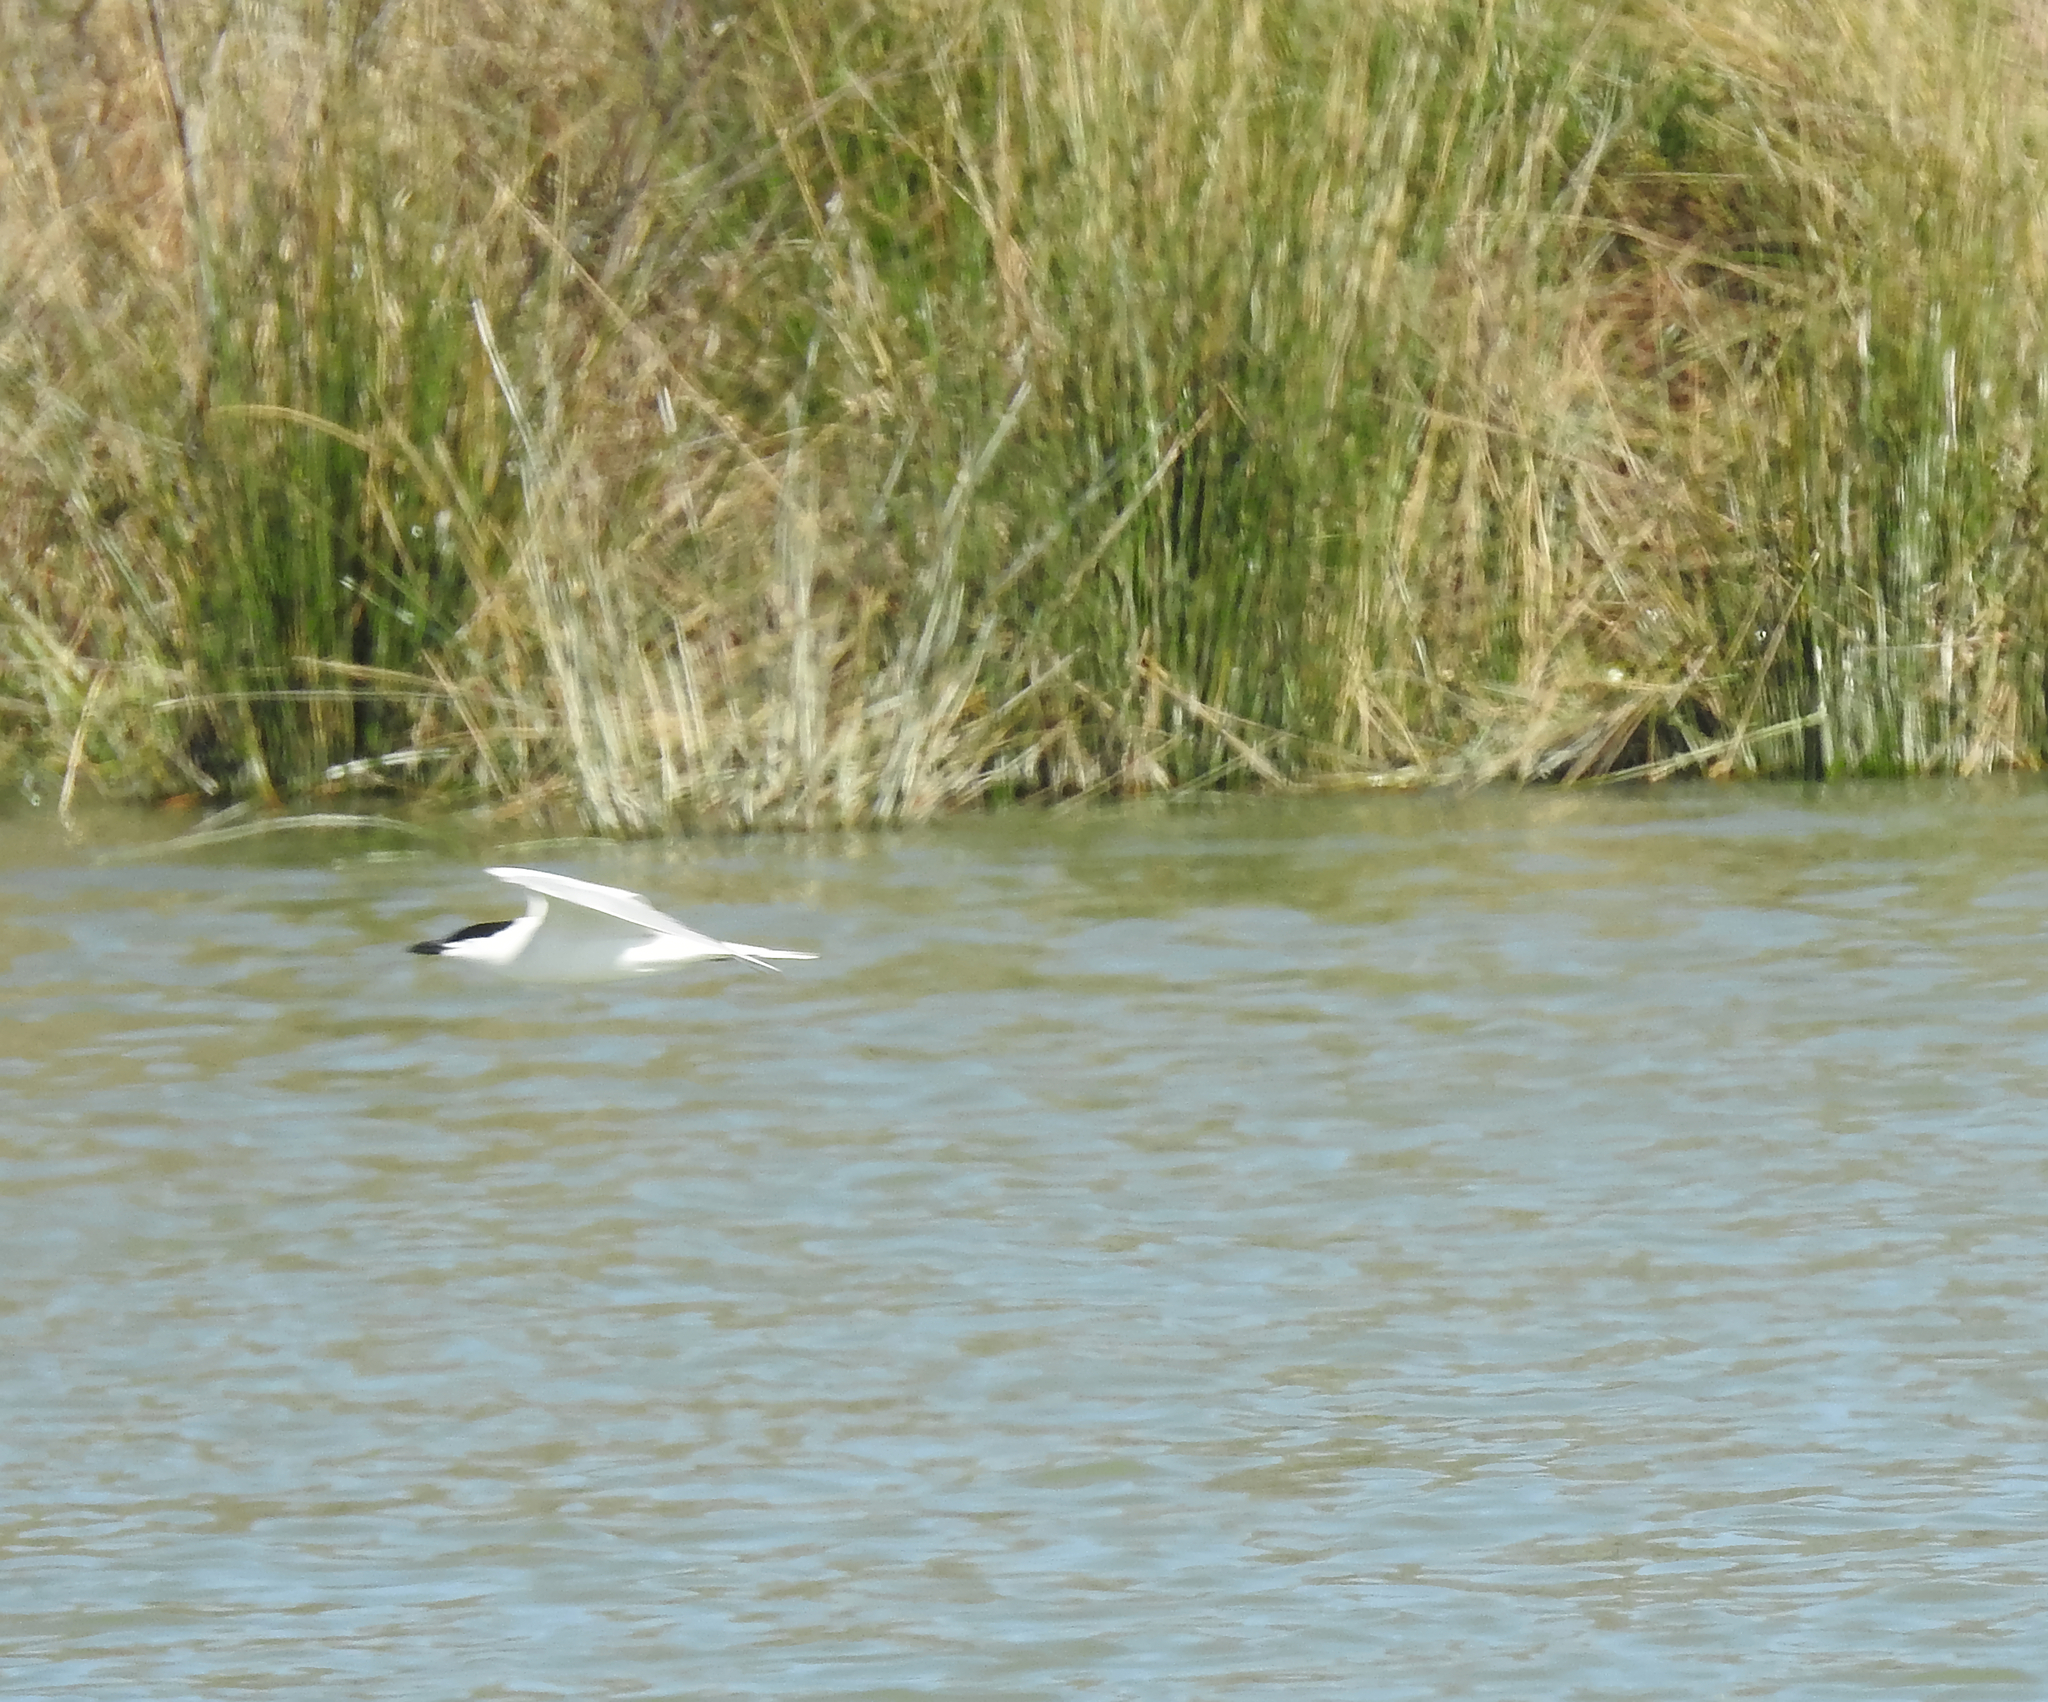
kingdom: Animalia
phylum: Chordata
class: Aves
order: Charadriiformes
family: Laridae
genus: Gelochelidon
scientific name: Gelochelidon nilotica
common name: Gull-billed tern
